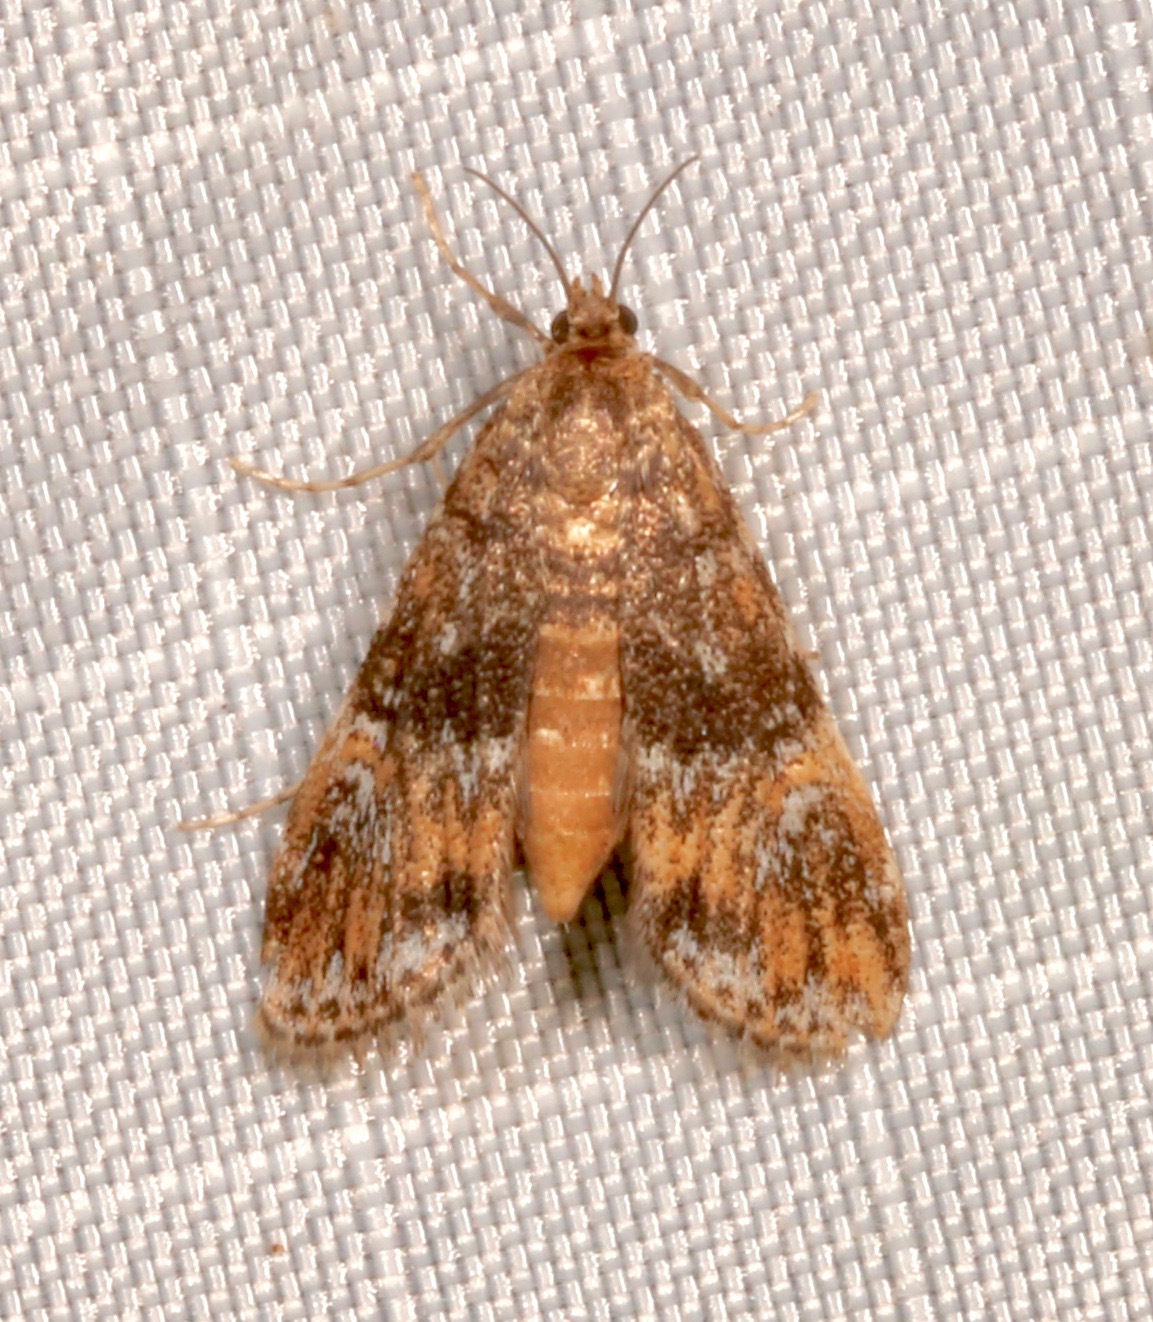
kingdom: Animalia
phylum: Arthropoda
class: Insecta
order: Lepidoptera
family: Crambidae
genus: Elophila
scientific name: Elophila obliteralis
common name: Waterlily leafcutter moth
